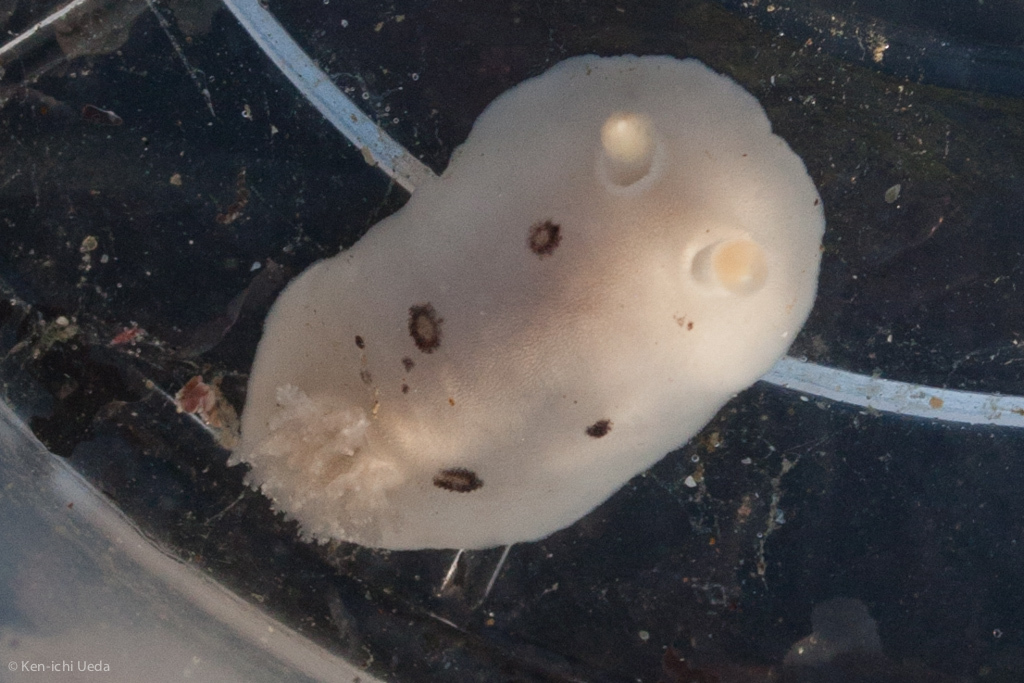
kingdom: Animalia
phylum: Mollusca
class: Gastropoda
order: Nudibranchia
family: Discodorididae
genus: Diaulula
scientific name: Diaulula sandiegensis
